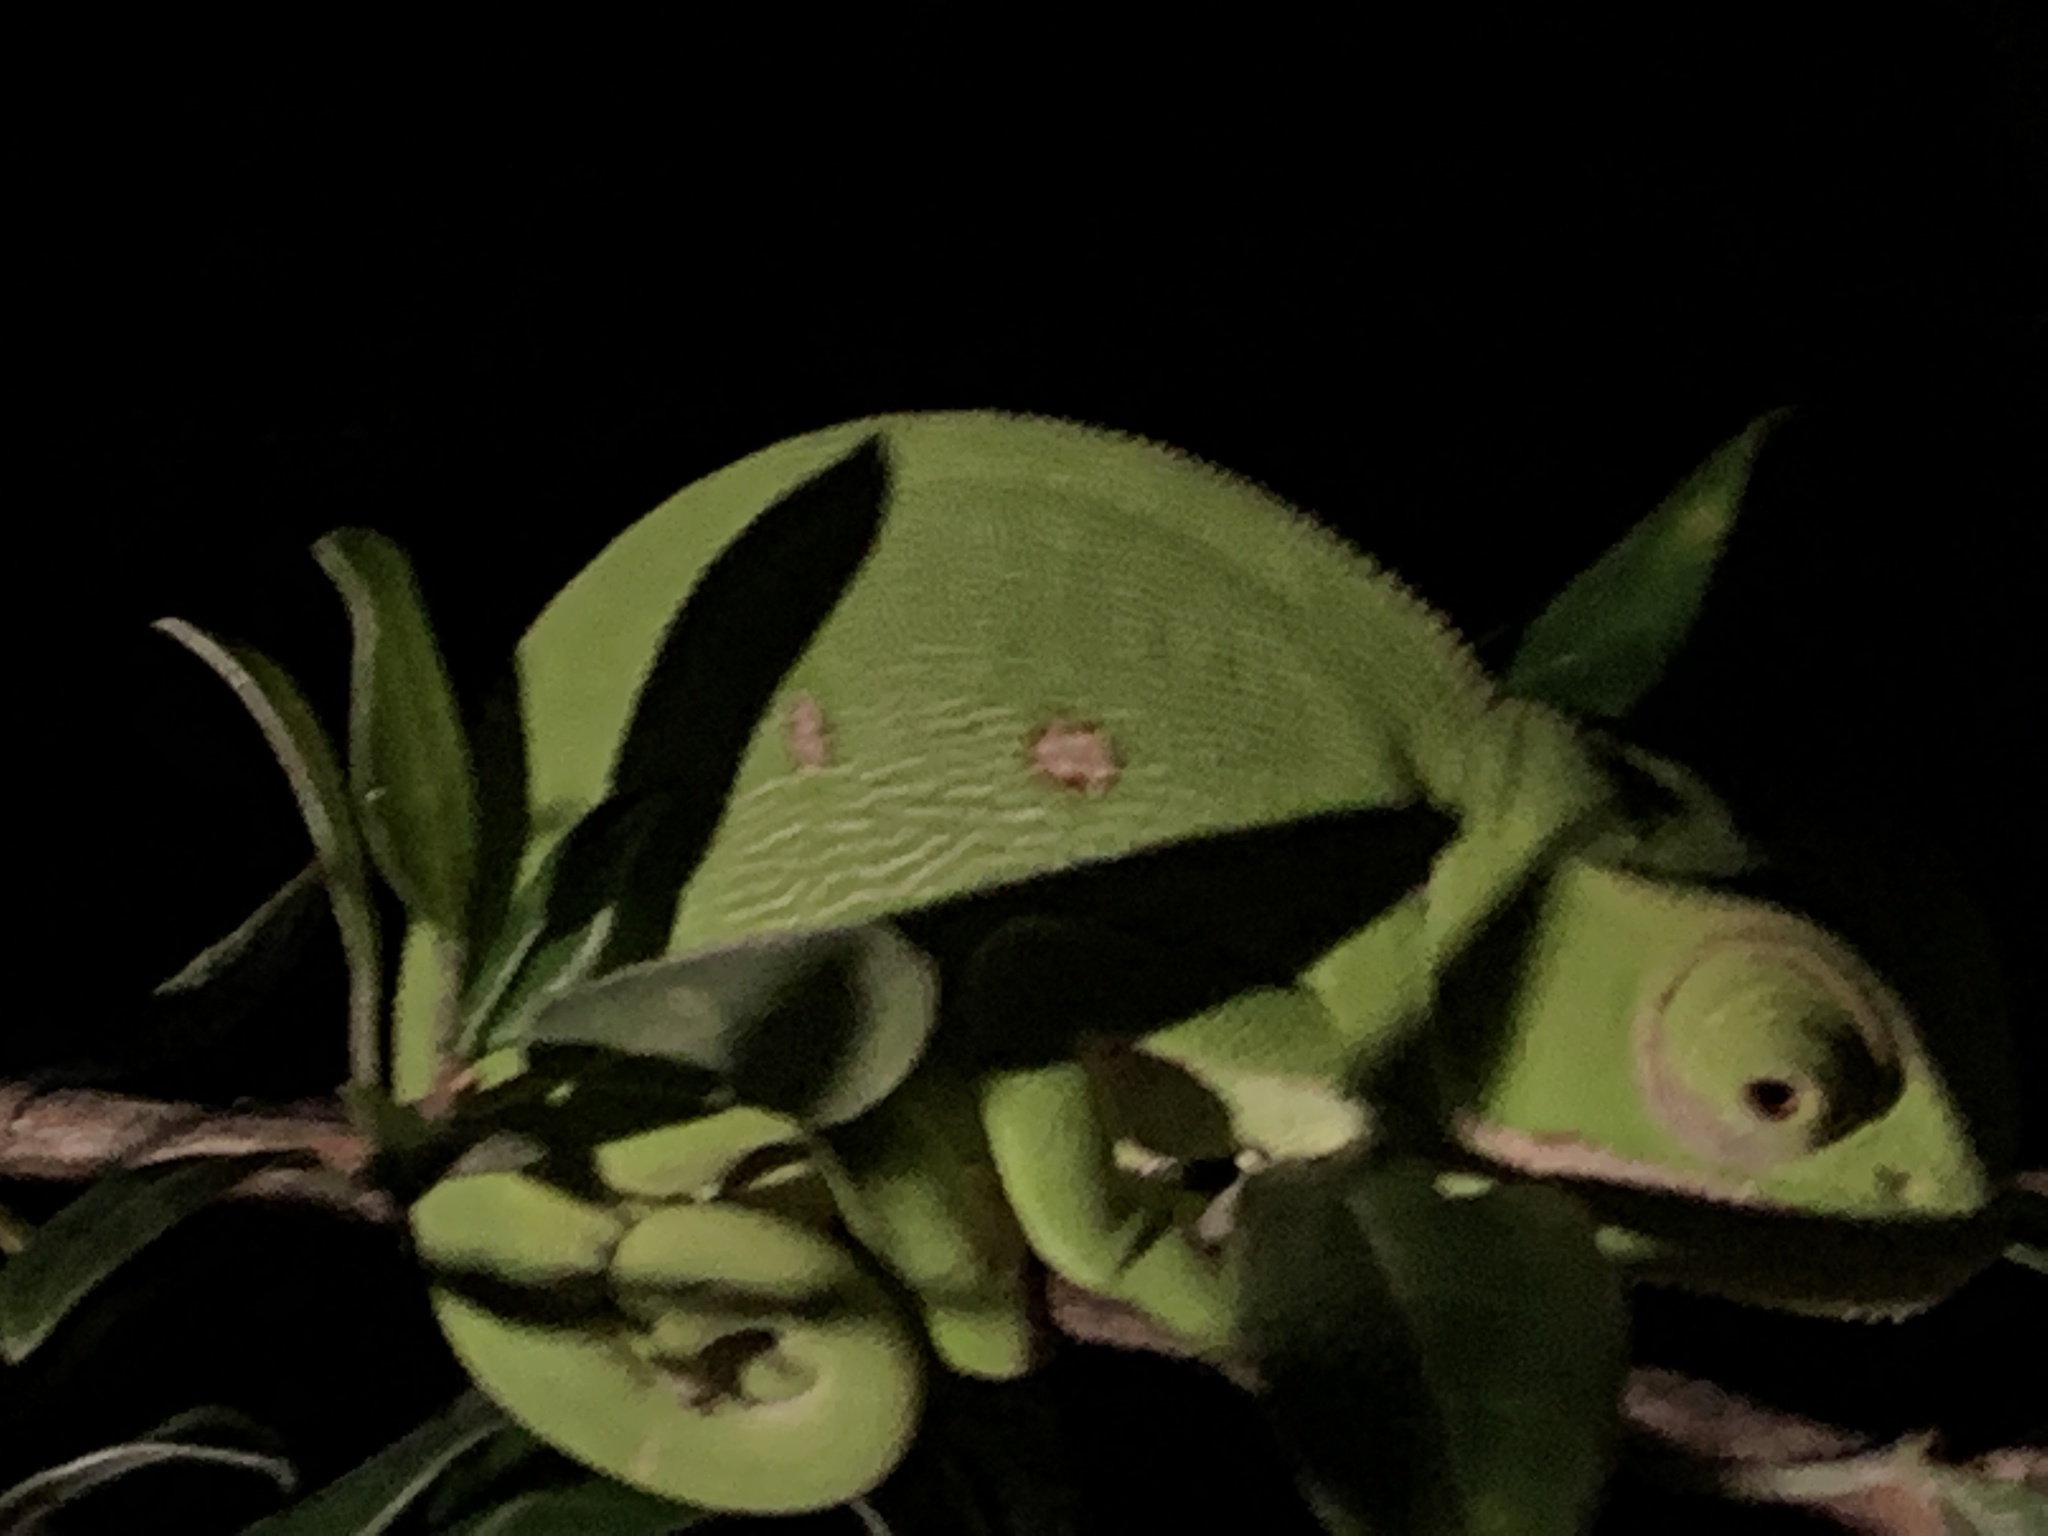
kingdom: Animalia
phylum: Chordata
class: Squamata
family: Chamaeleonidae
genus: Chamaeleo
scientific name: Chamaeleo dilepis
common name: Flapneck chameleon
